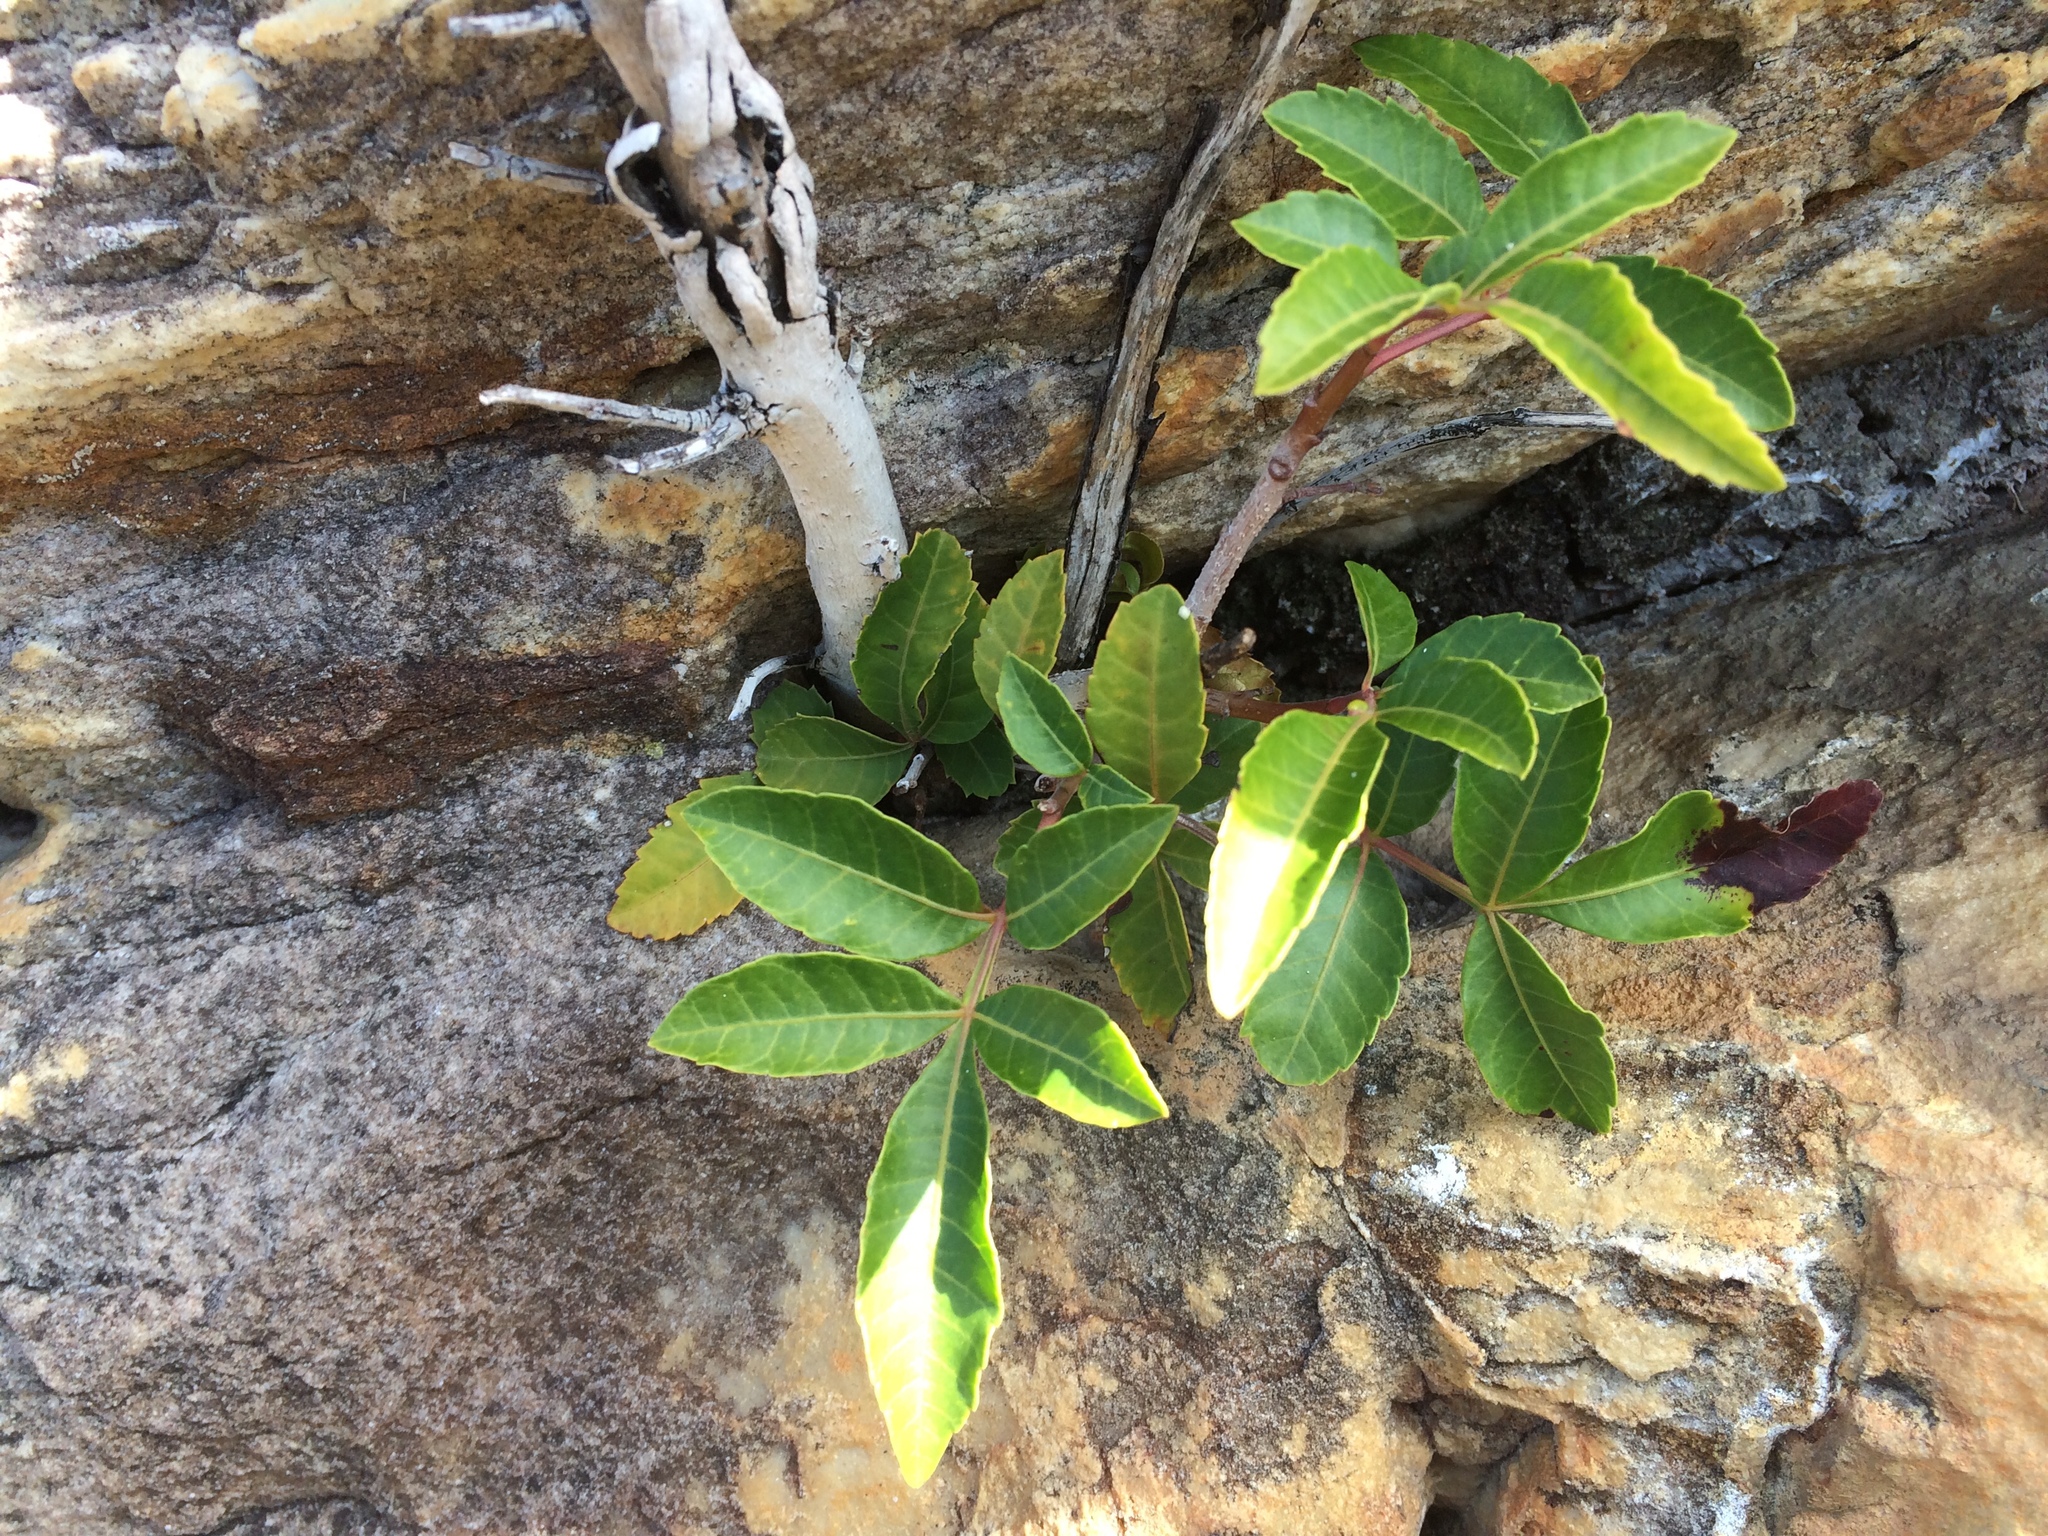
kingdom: Plantae
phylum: Tracheophyta
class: Magnoliopsida
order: Sapindales
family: Anacardiaceae
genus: Schinus
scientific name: Schinus terebinthifolia
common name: Brazilian peppertree
